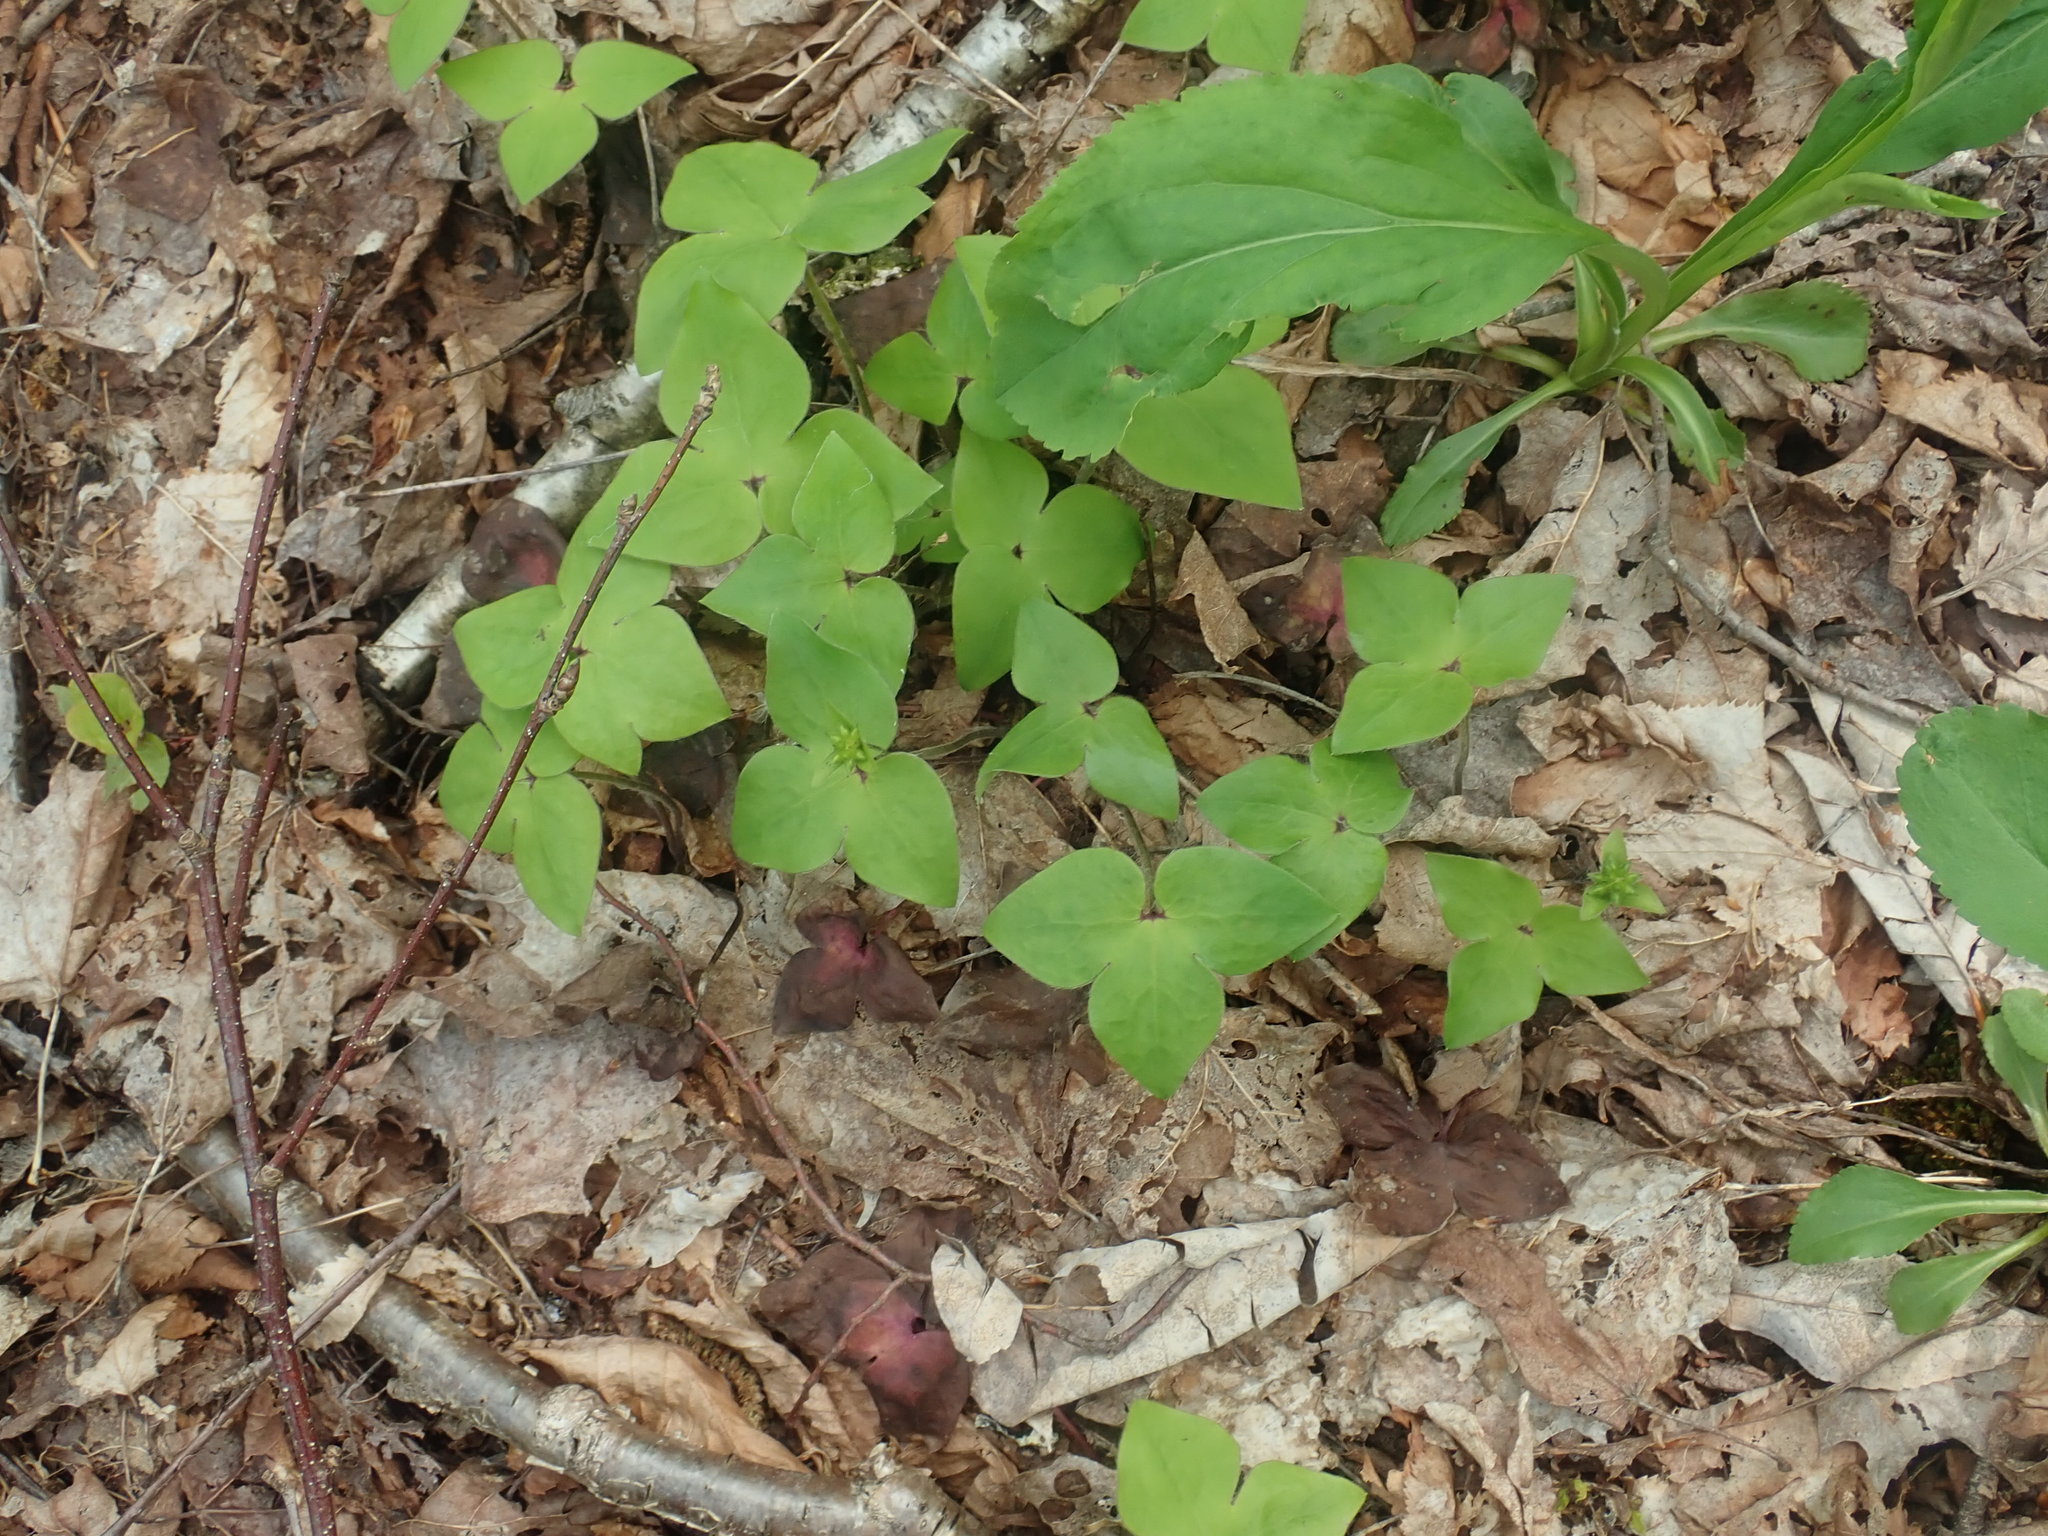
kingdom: Plantae
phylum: Tracheophyta
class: Magnoliopsida
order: Ranunculales
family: Ranunculaceae
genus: Hepatica
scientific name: Hepatica acutiloba
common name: Sharp-lobed hepatica
